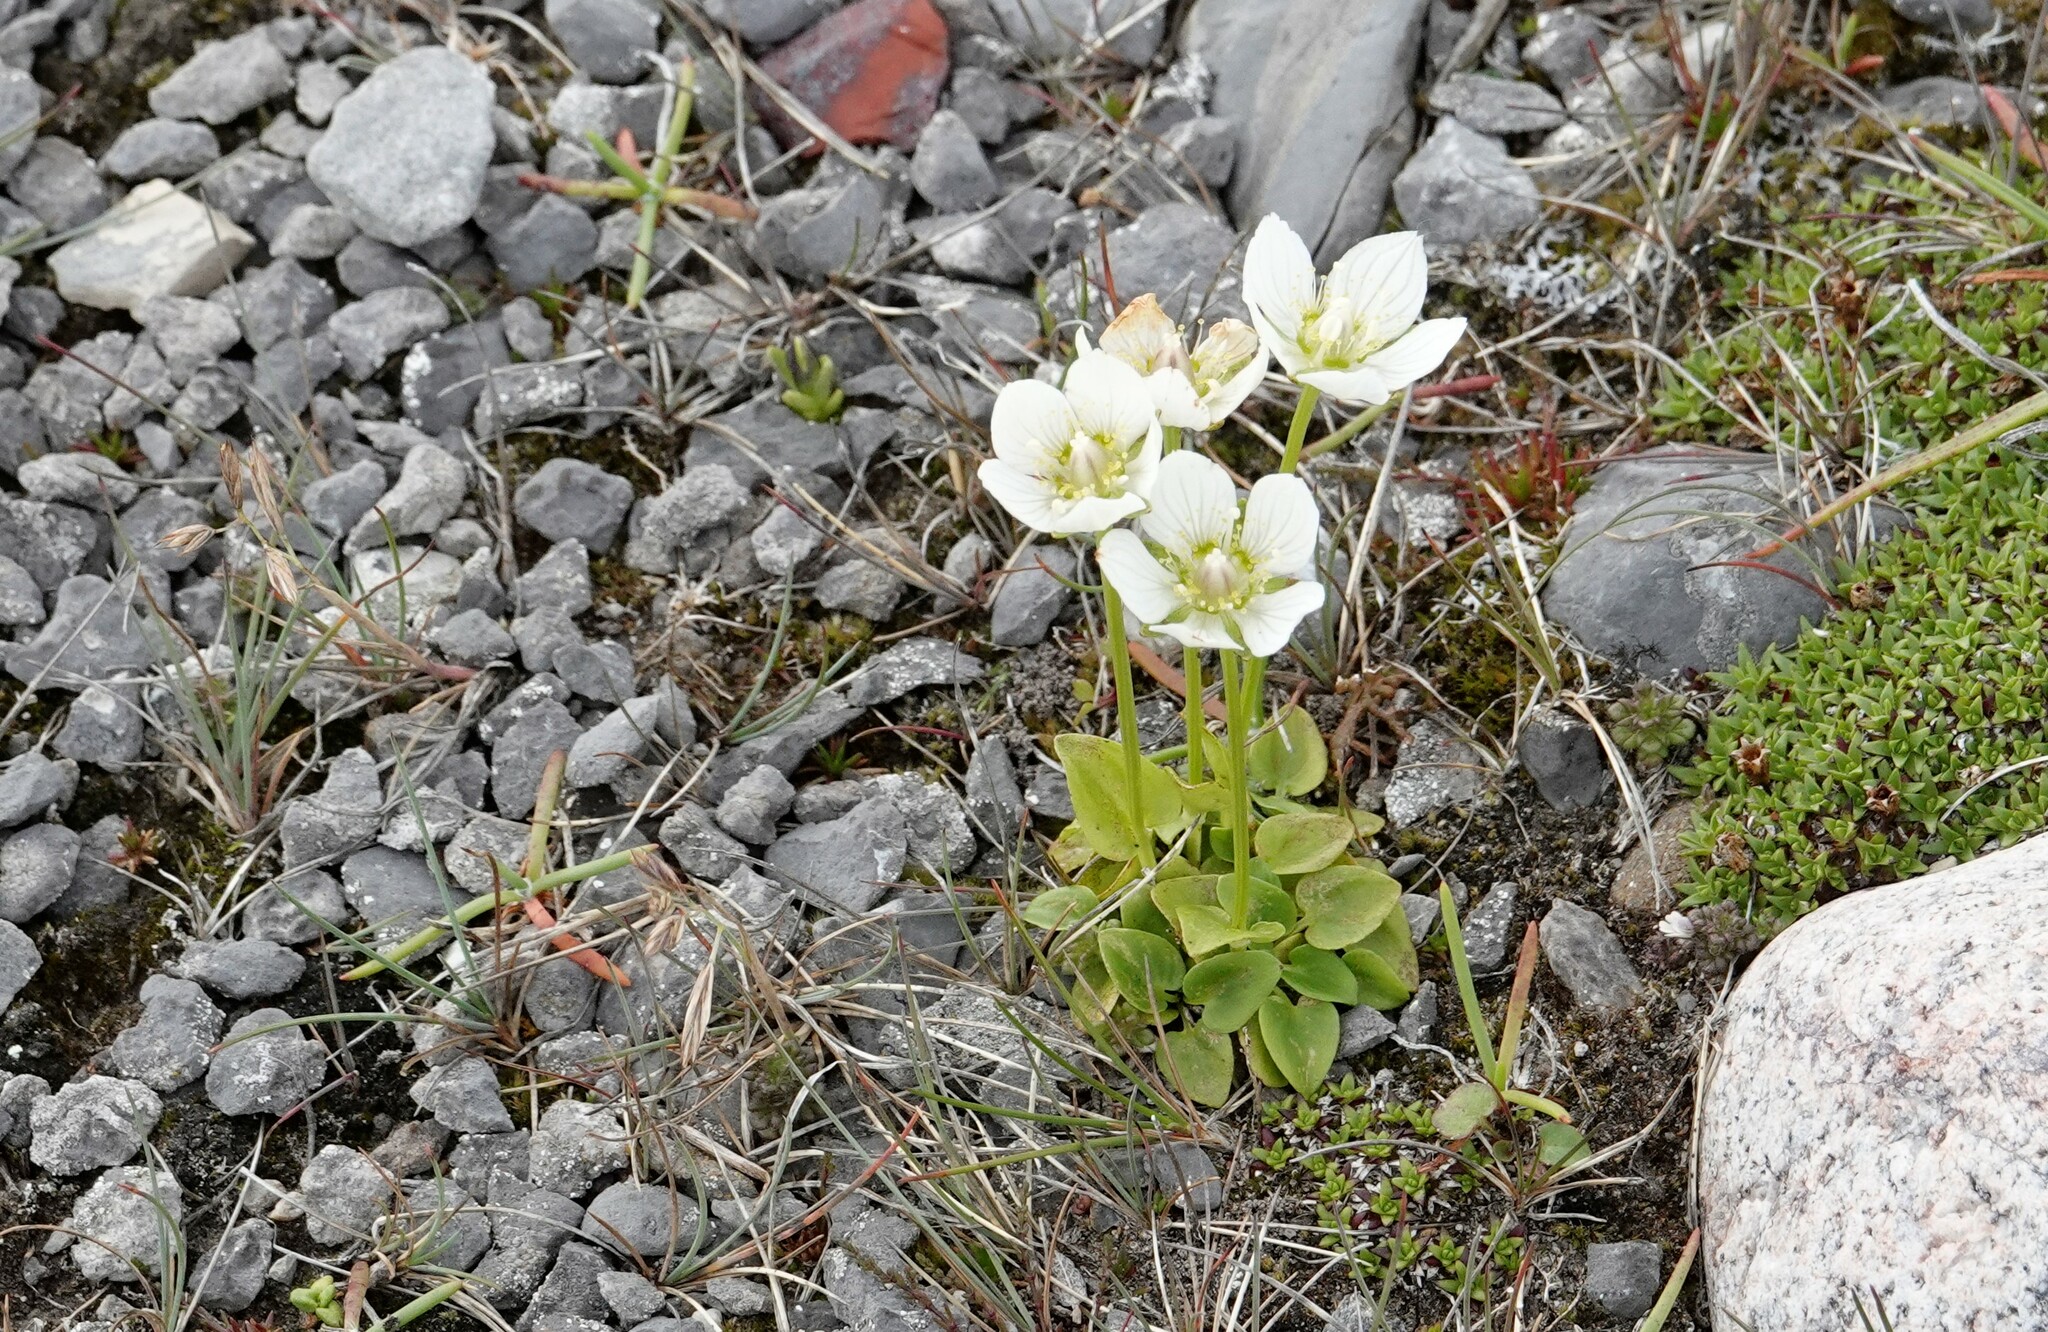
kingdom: Plantae
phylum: Tracheophyta
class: Magnoliopsida
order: Celastrales
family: Parnassiaceae
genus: Parnassia
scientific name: Parnassia palustris
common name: Grass-of-parnassus
